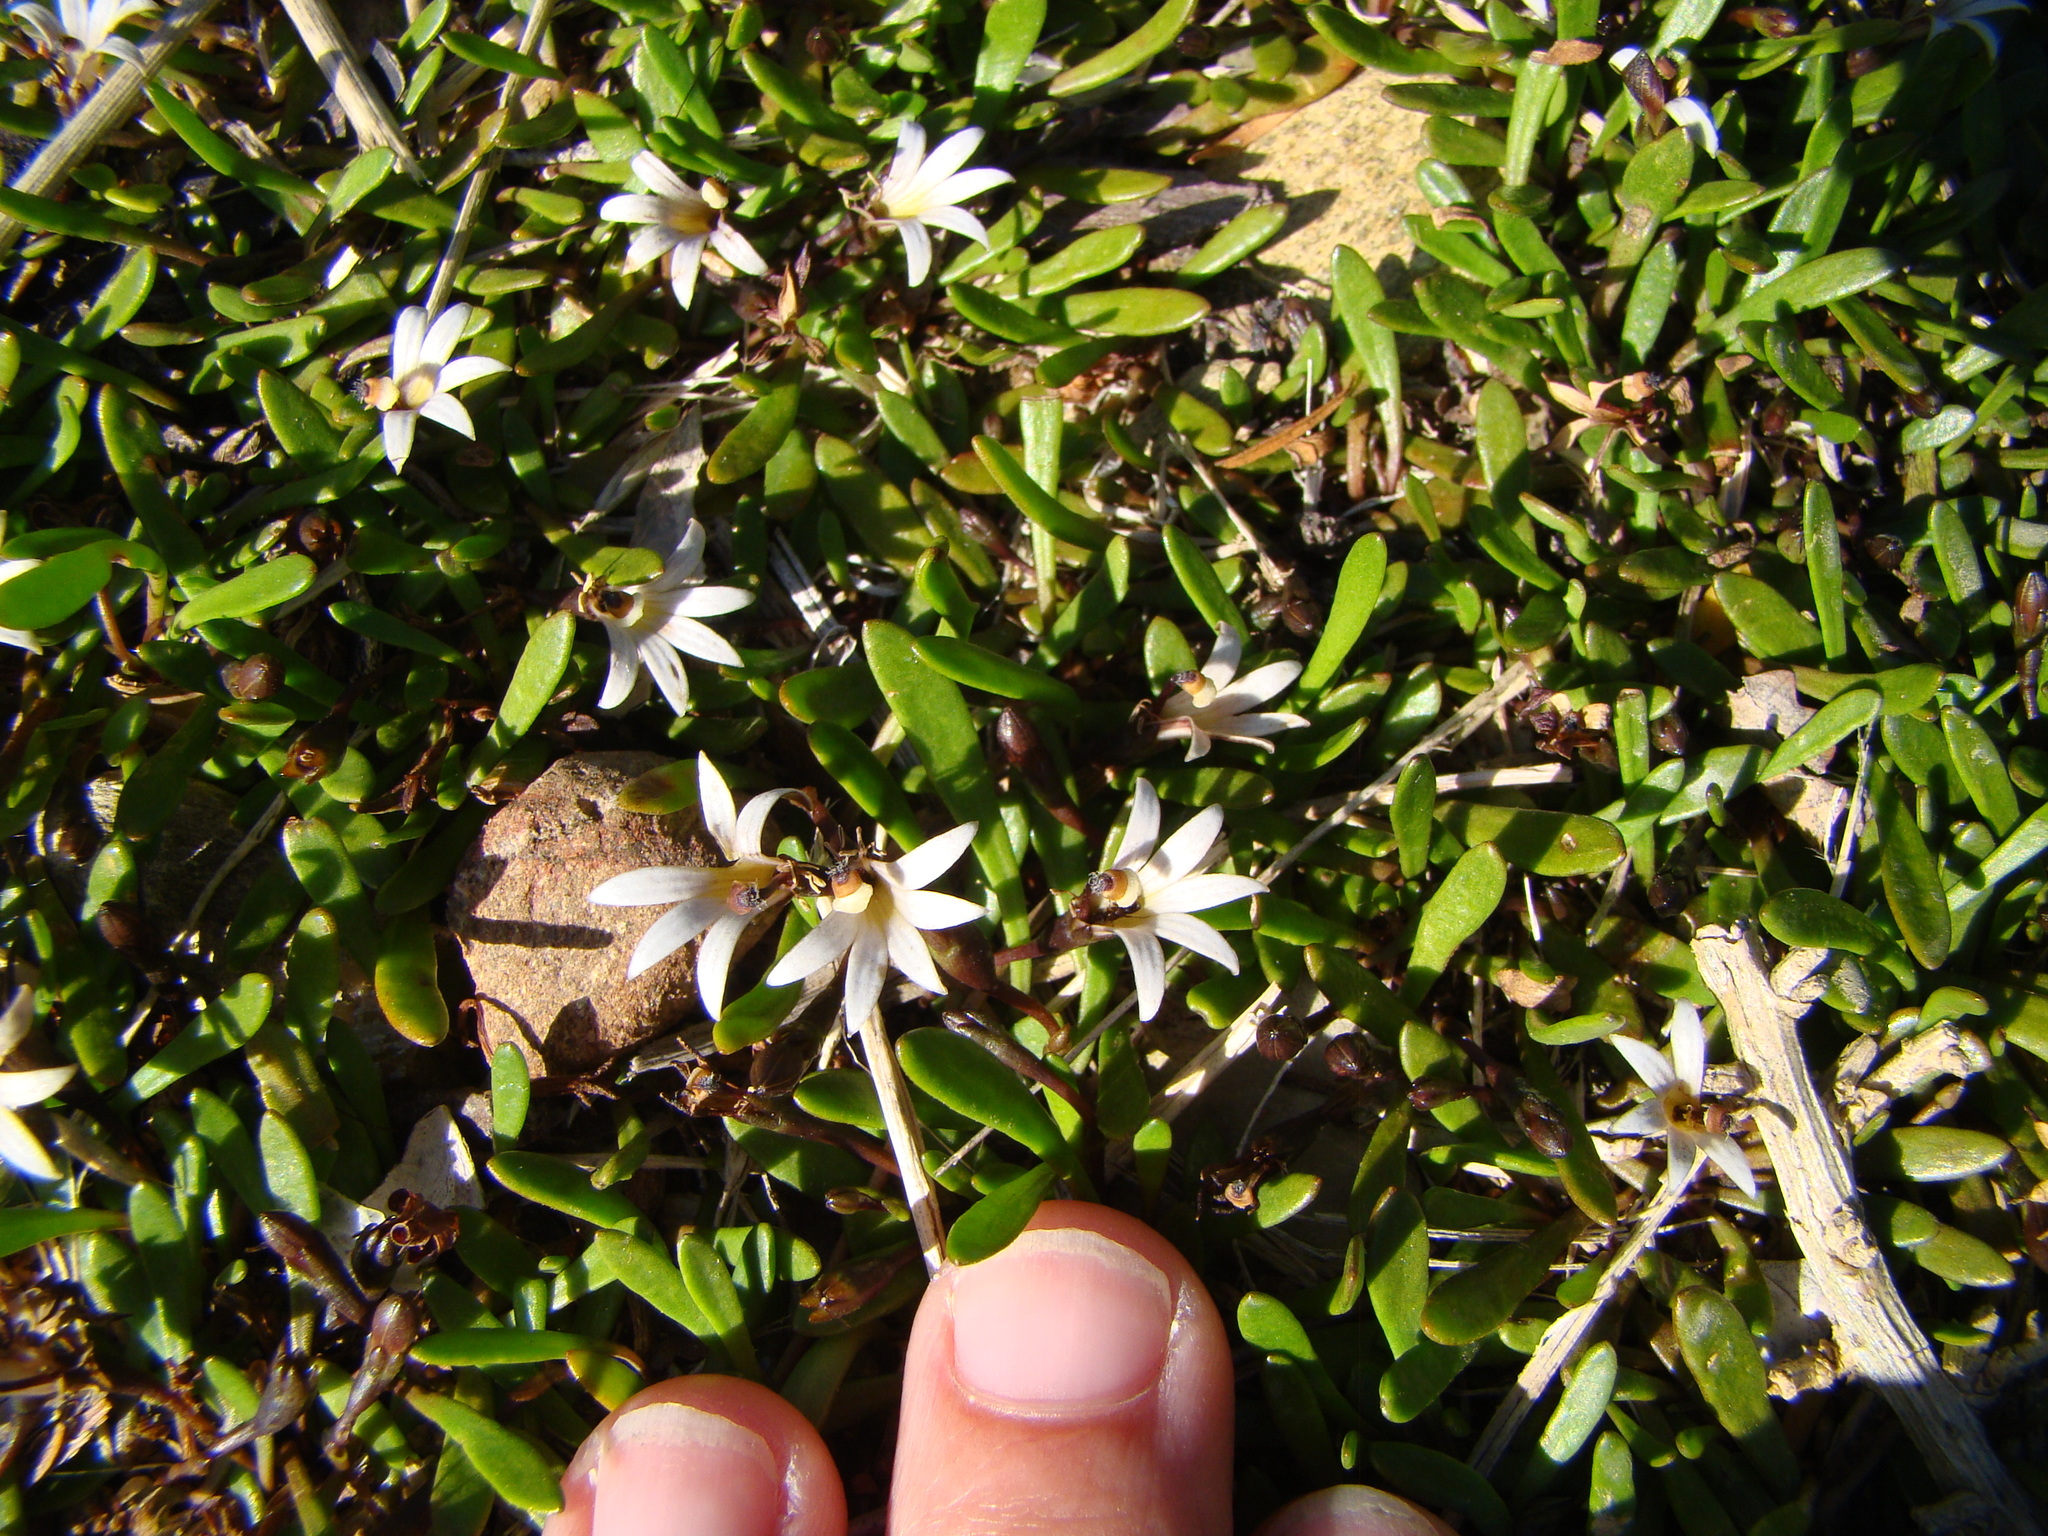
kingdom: Plantae
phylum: Tracheophyta
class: Magnoliopsida
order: Asterales
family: Goodeniaceae
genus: Goodenia
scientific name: Goodenia radicans
